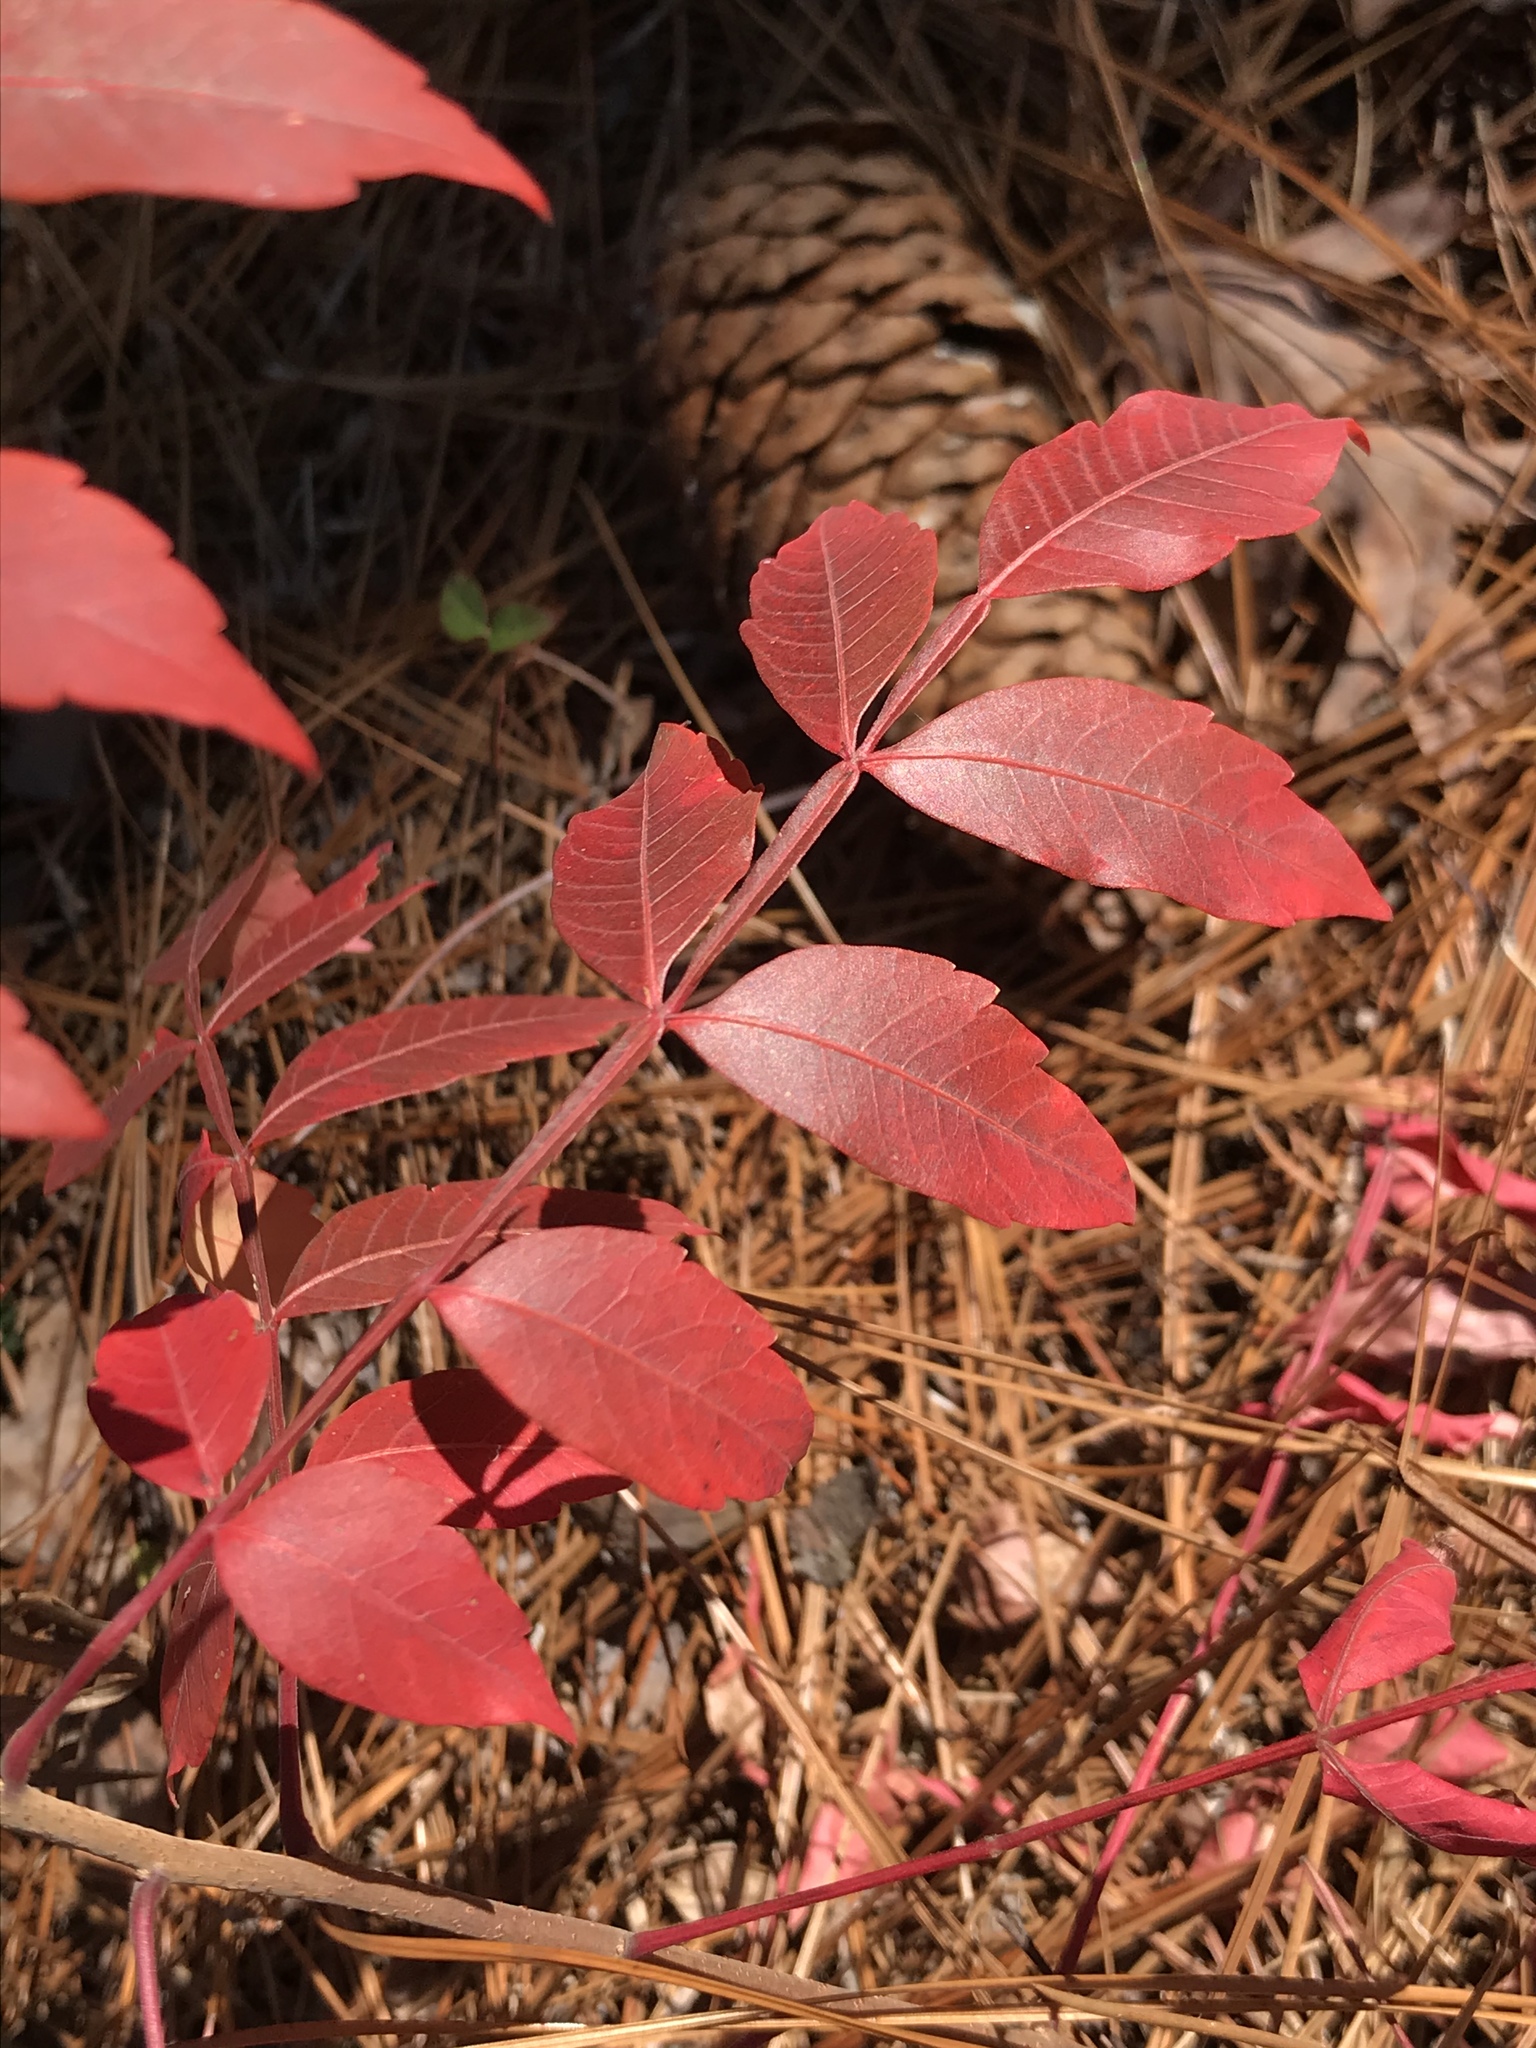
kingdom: Plantae
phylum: Tracheophyta
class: Magnoliopsida
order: Sapindales
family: Anacardiaceae
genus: Rhus
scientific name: Rhus copallina
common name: Shining sumac
